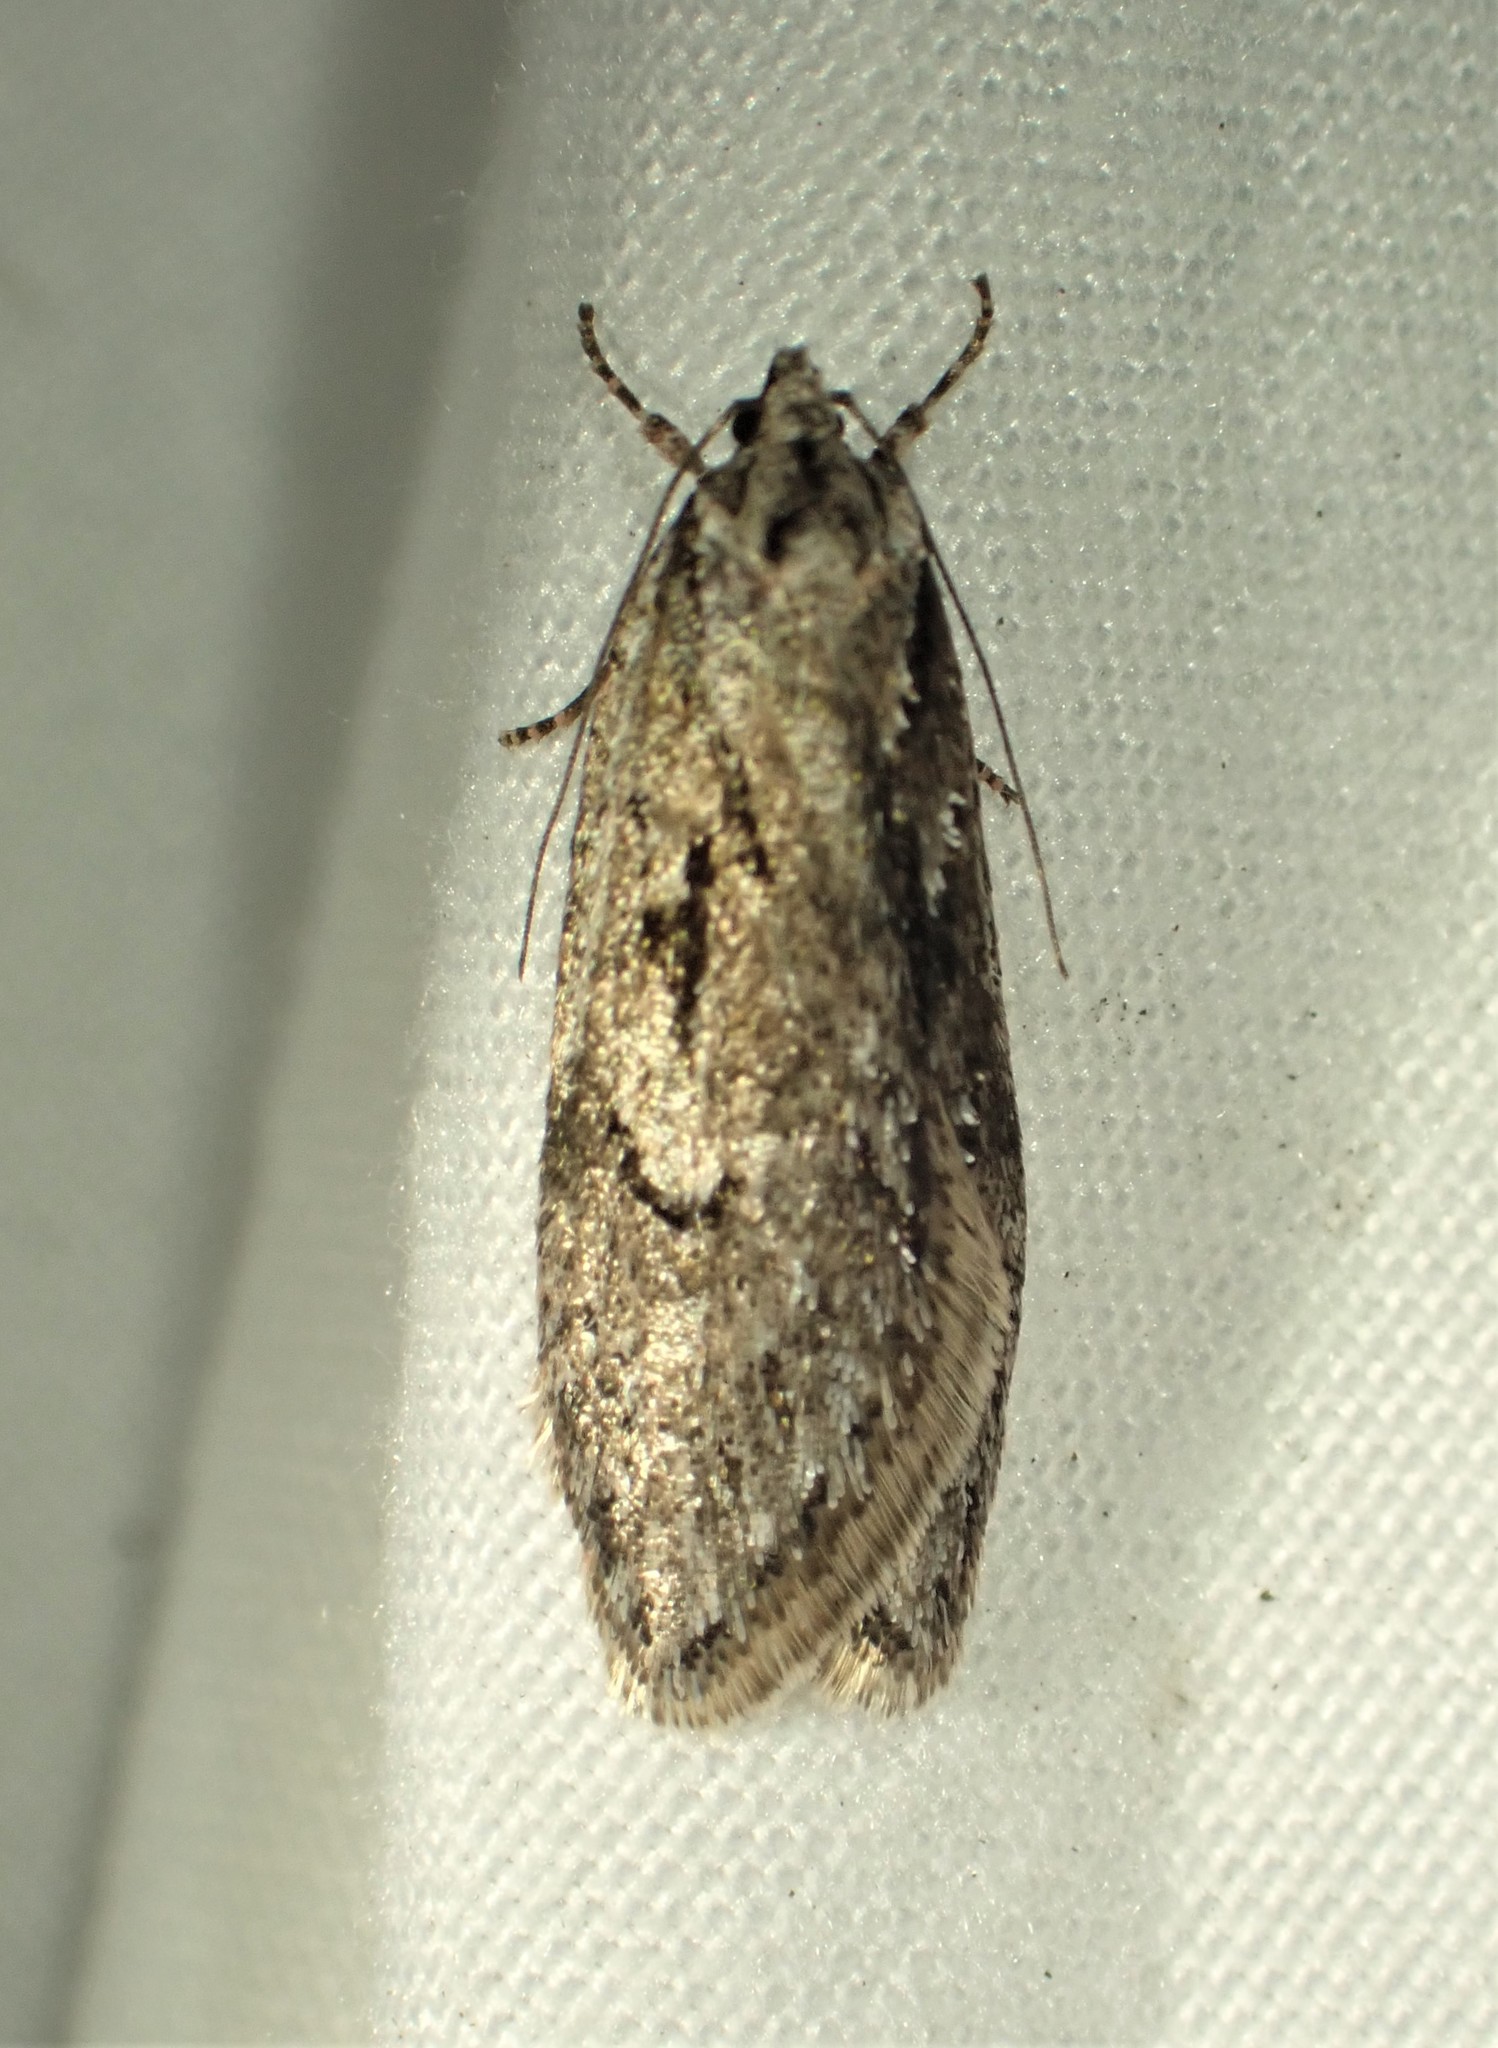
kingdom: Animalia
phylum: Arthropoda
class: Insecta
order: Lepidoptera
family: Depressariidae
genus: Semioscopis
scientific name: Semioscopis aurorella
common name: Aurora flatbody moth
